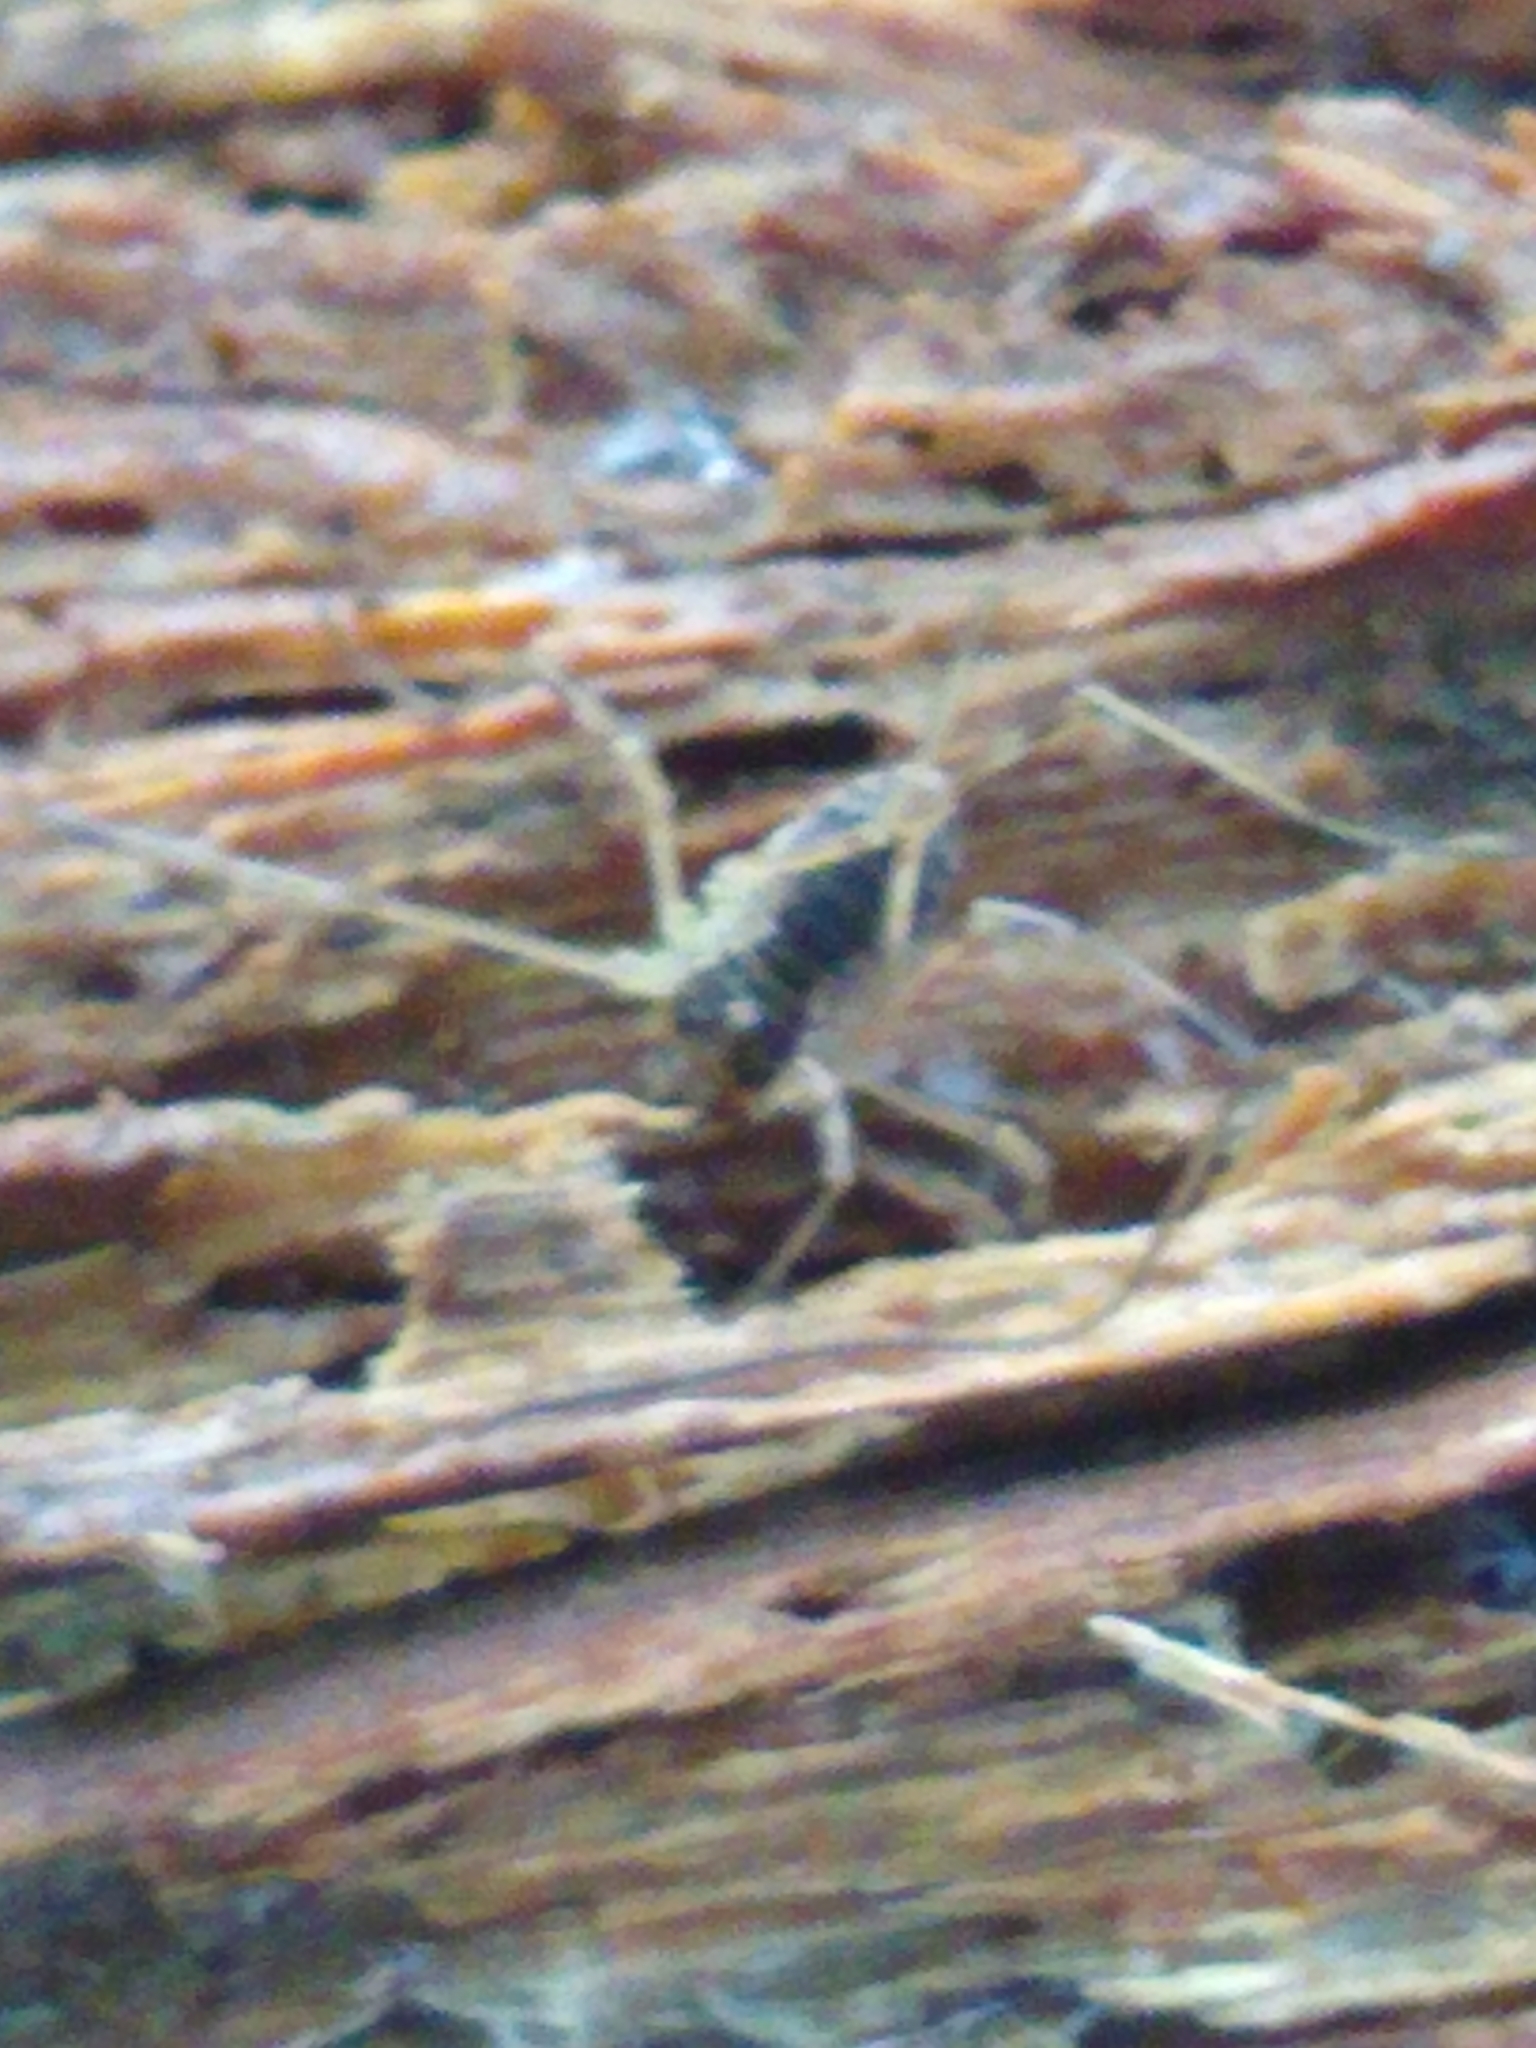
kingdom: Animalia
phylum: Arthropoda
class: Arachnida
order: Opiliones
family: Phalangiidae
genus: Oligolophus
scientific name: Oligolophus tridens
